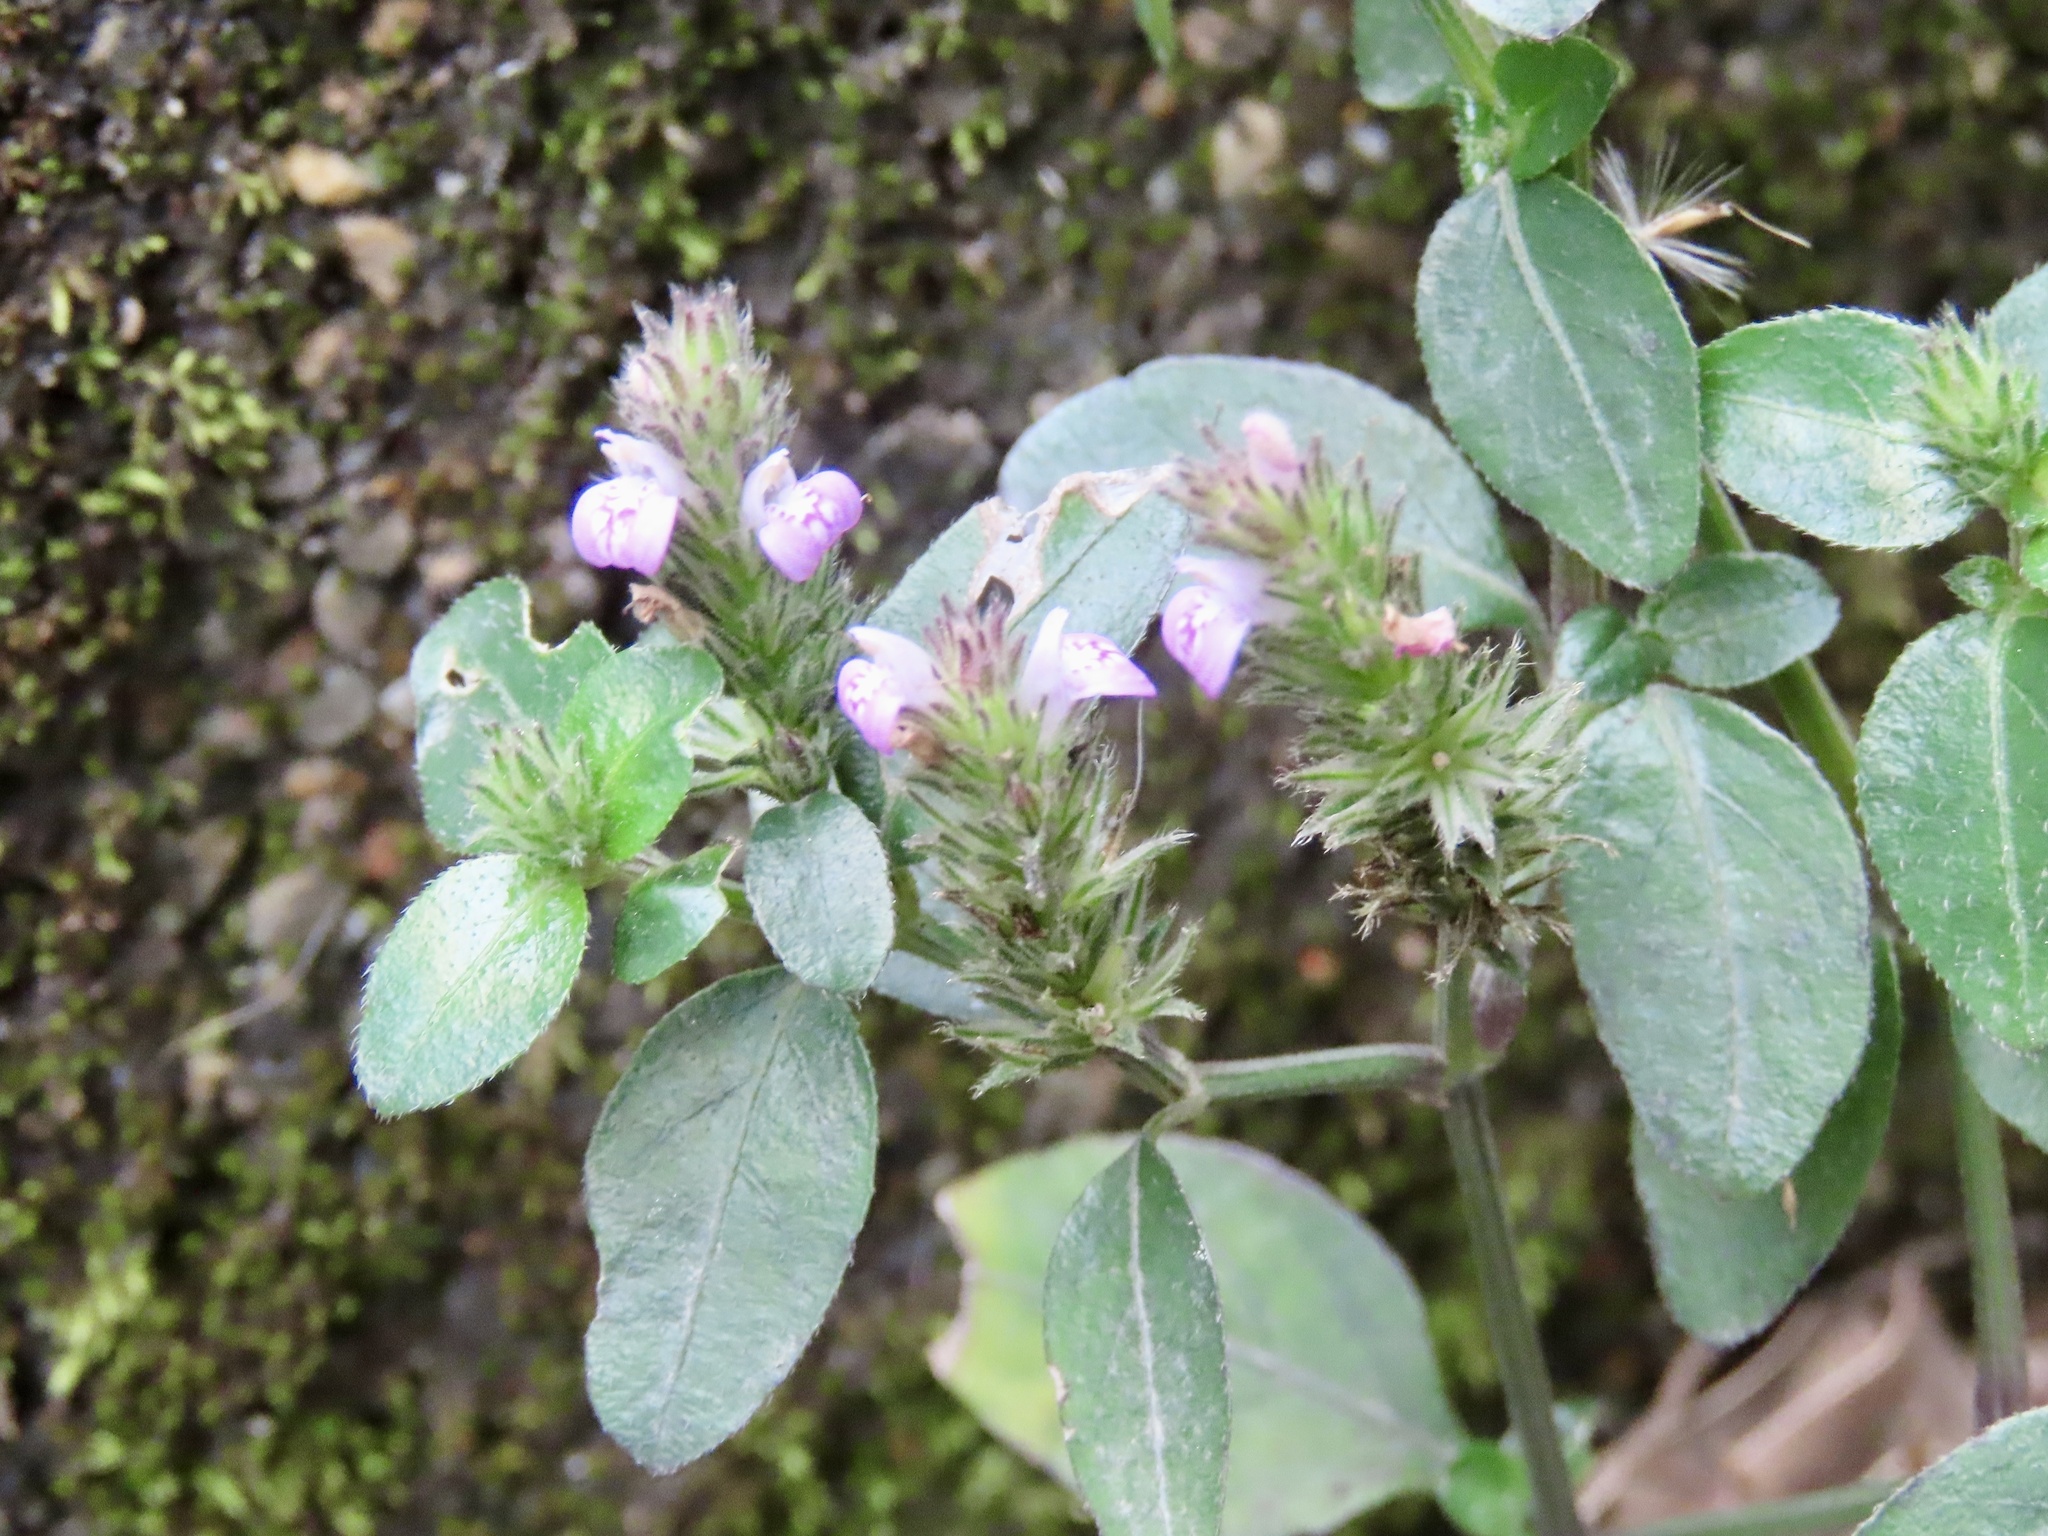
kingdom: Plantae
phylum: Tracheophyta
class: Magnoliopsida
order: Lamiales
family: Acanthaceae
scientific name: Acanthaceae
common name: Acanthaceae
